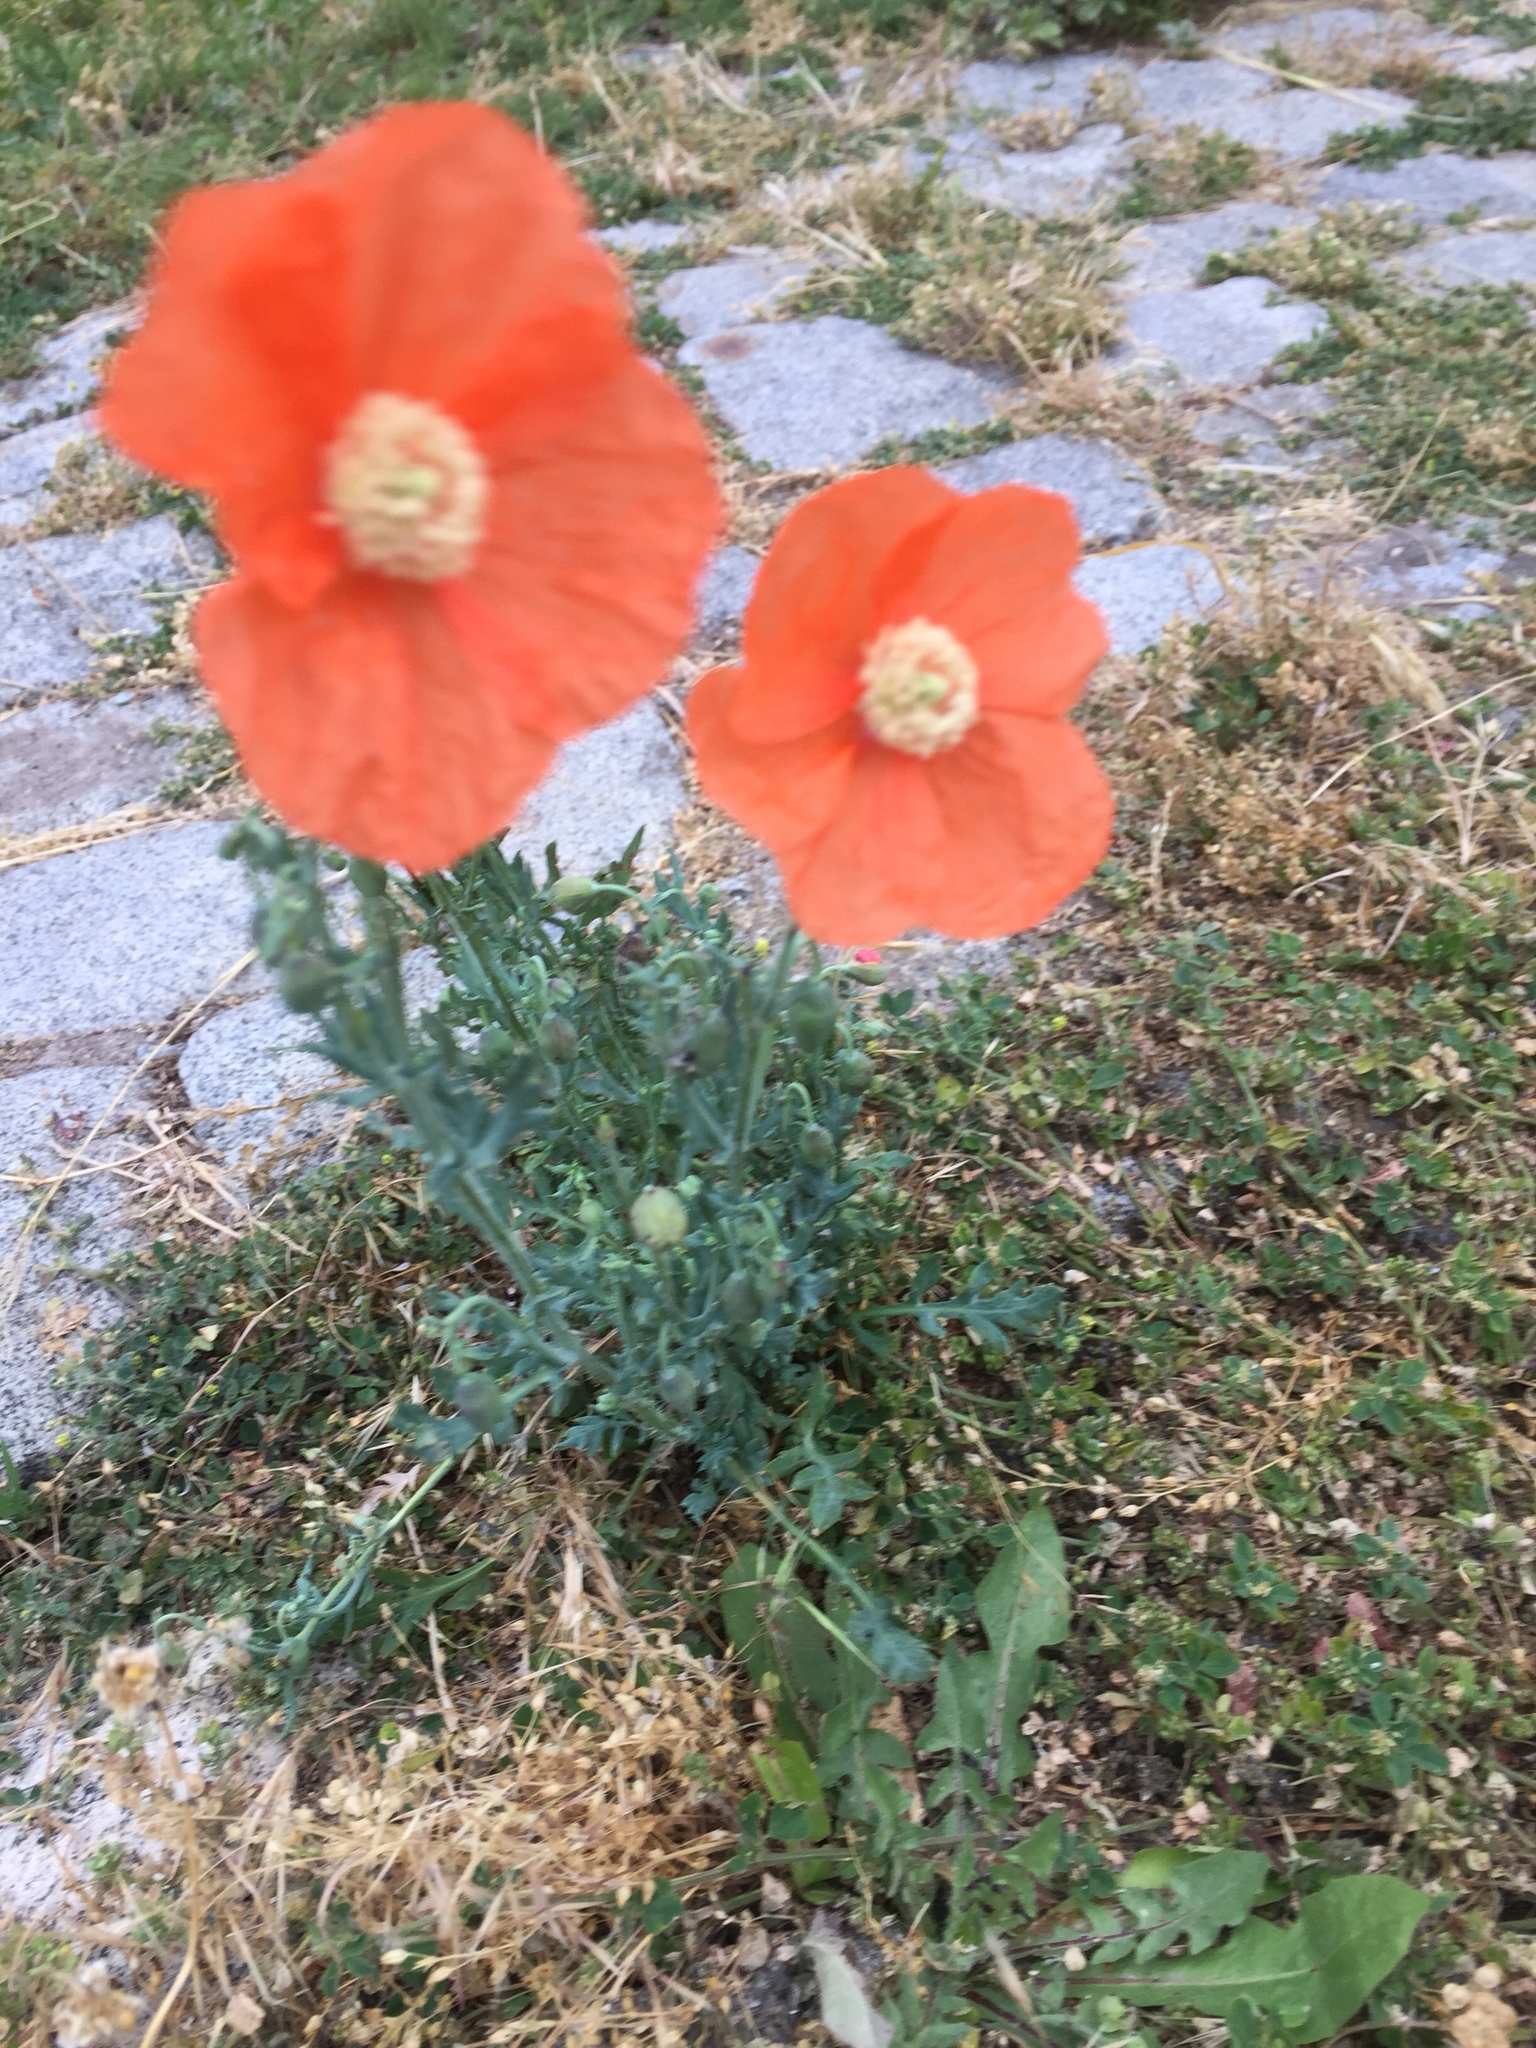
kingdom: Plantae
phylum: Tracheophyta
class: Magnoliopsida
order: Ranunculales
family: Papaveraceae
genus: Papaver
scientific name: Papaver armeniacum
